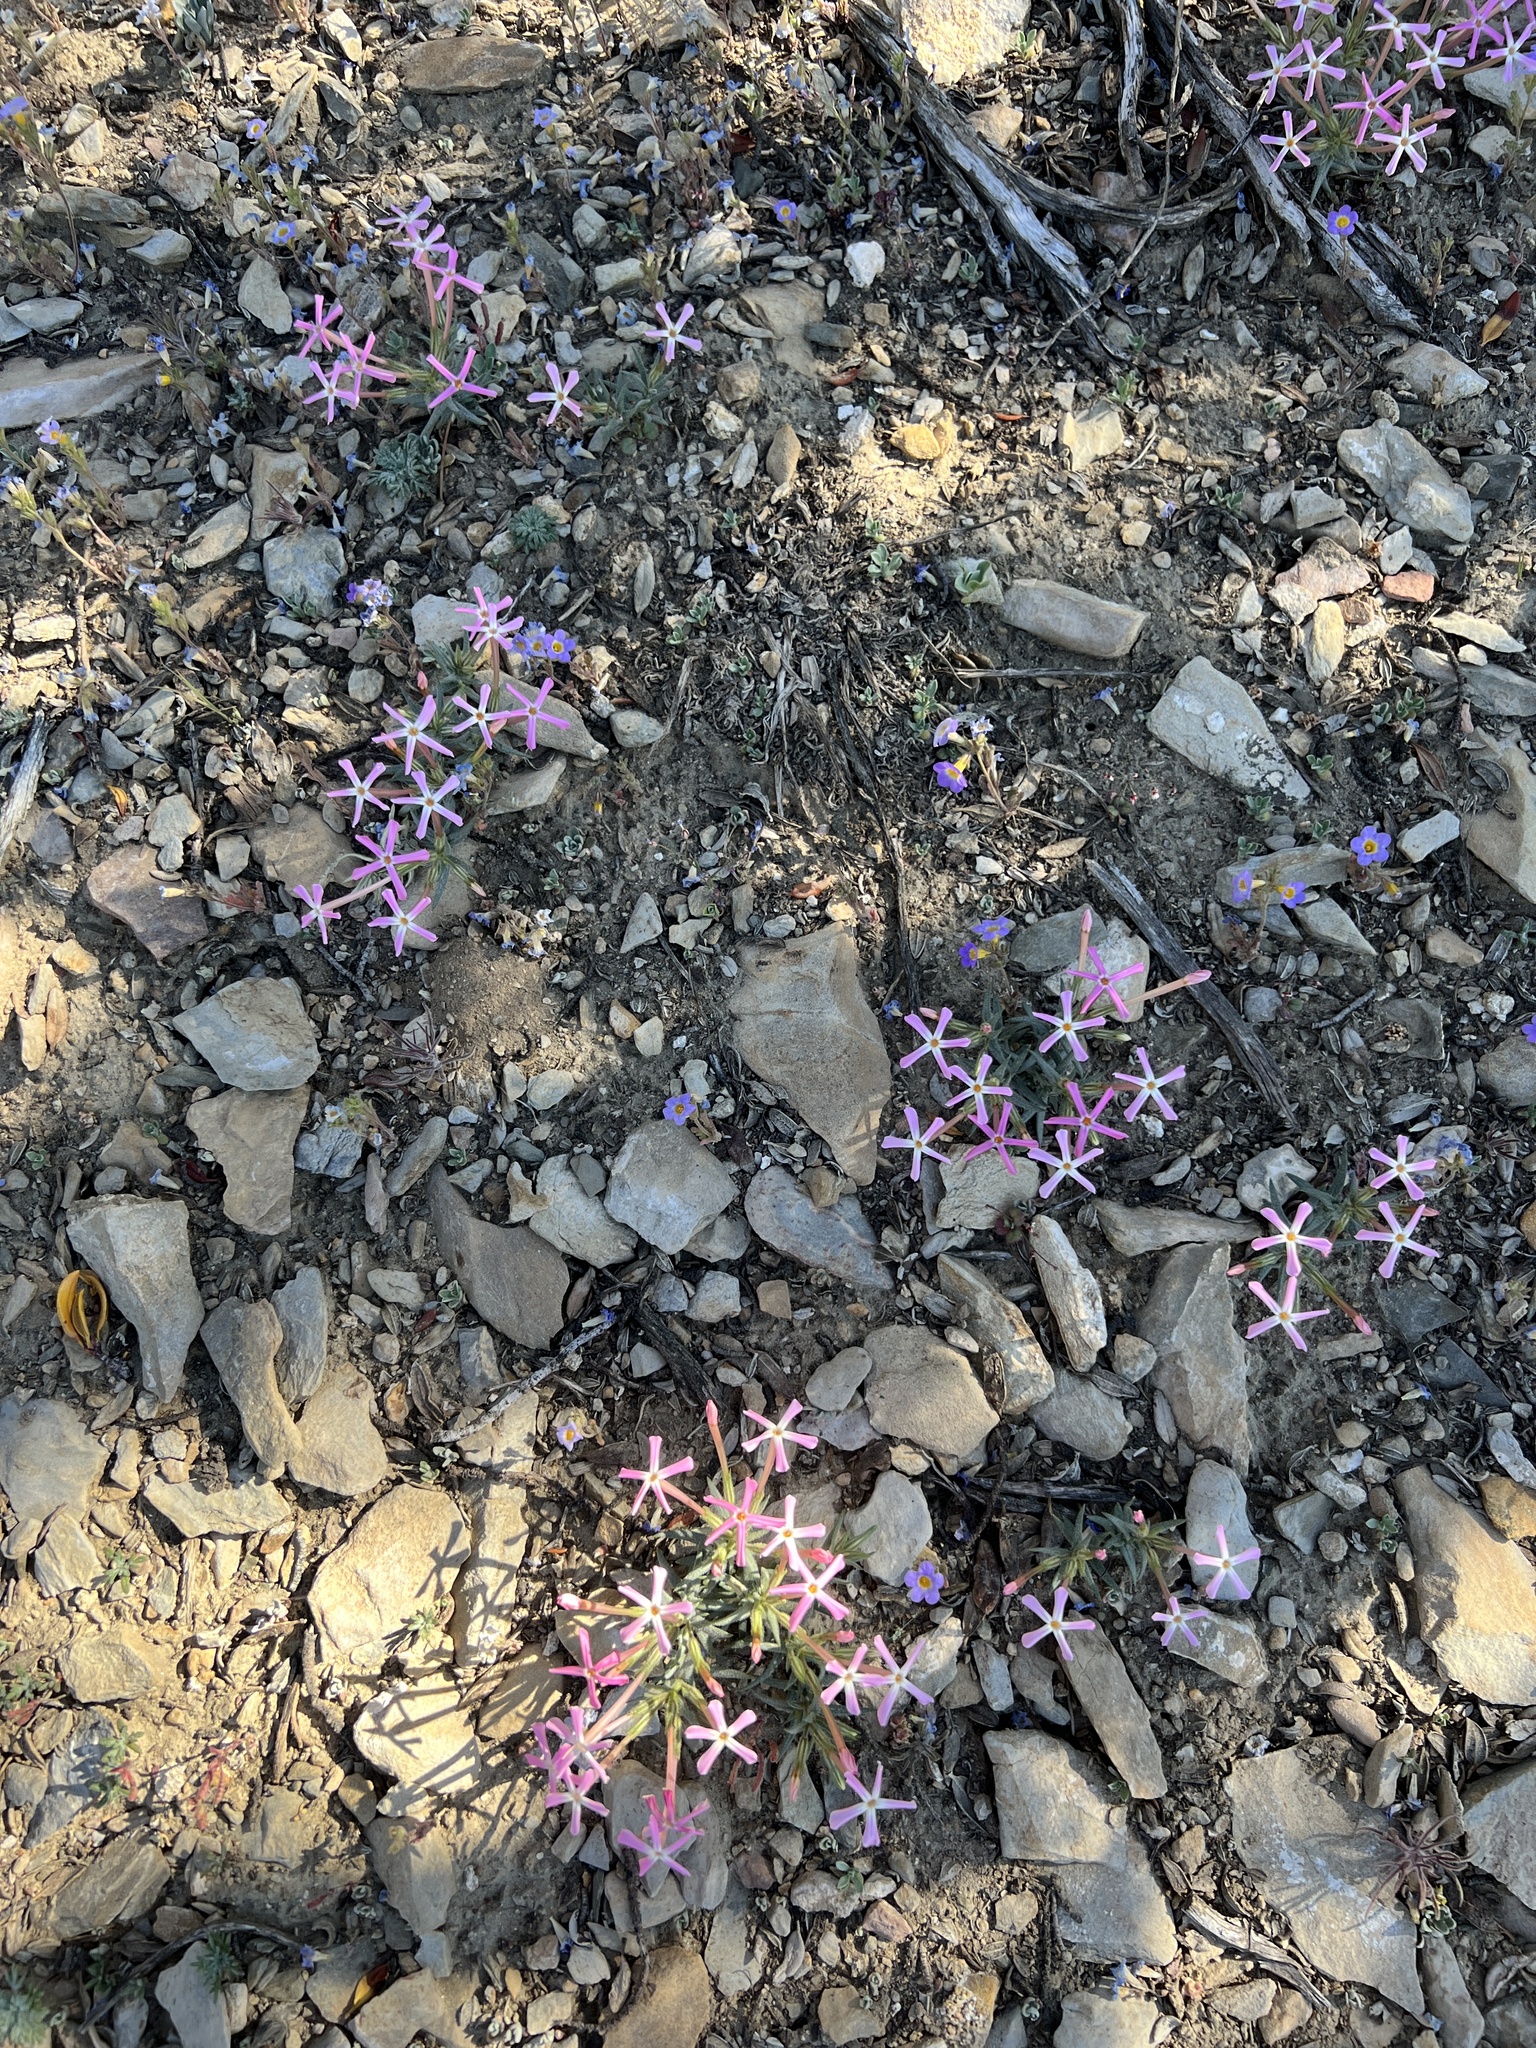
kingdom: Plantae
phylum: Tracheophyta
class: Magnoliopsida
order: Ericales
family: Polemoniaceae
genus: Phlox
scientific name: Phlox longifolia
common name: Longleaf phlox
